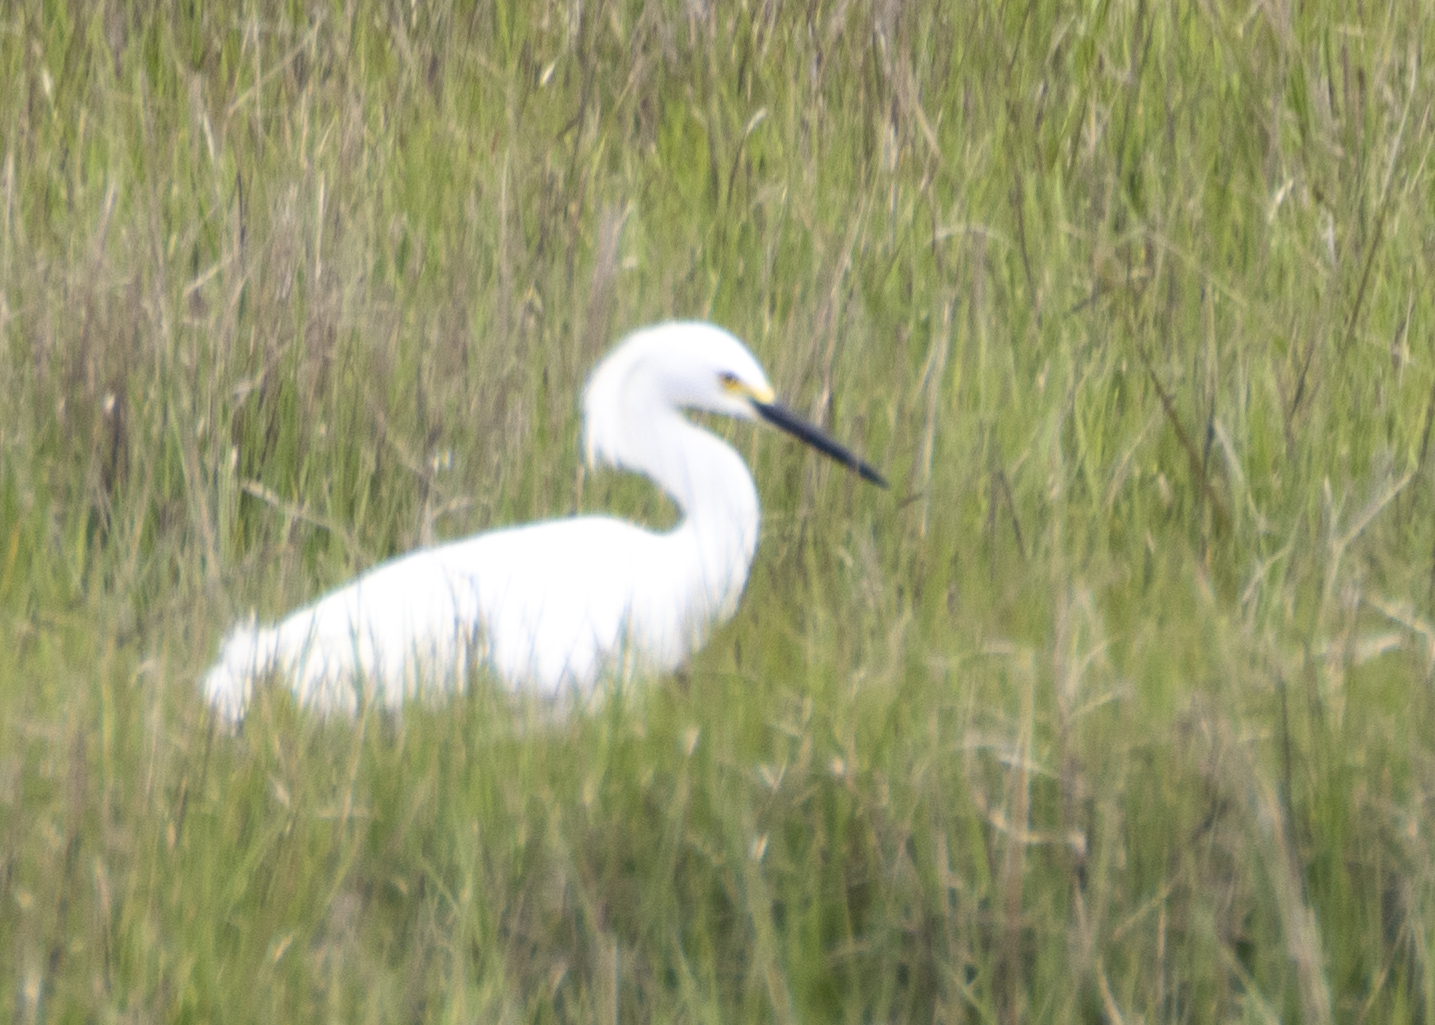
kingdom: Animalia
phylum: Chordata
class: Aves
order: Pelecaniformes
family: Ardeidae
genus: Egretta
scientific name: Egretta thula
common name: Snowy egret
